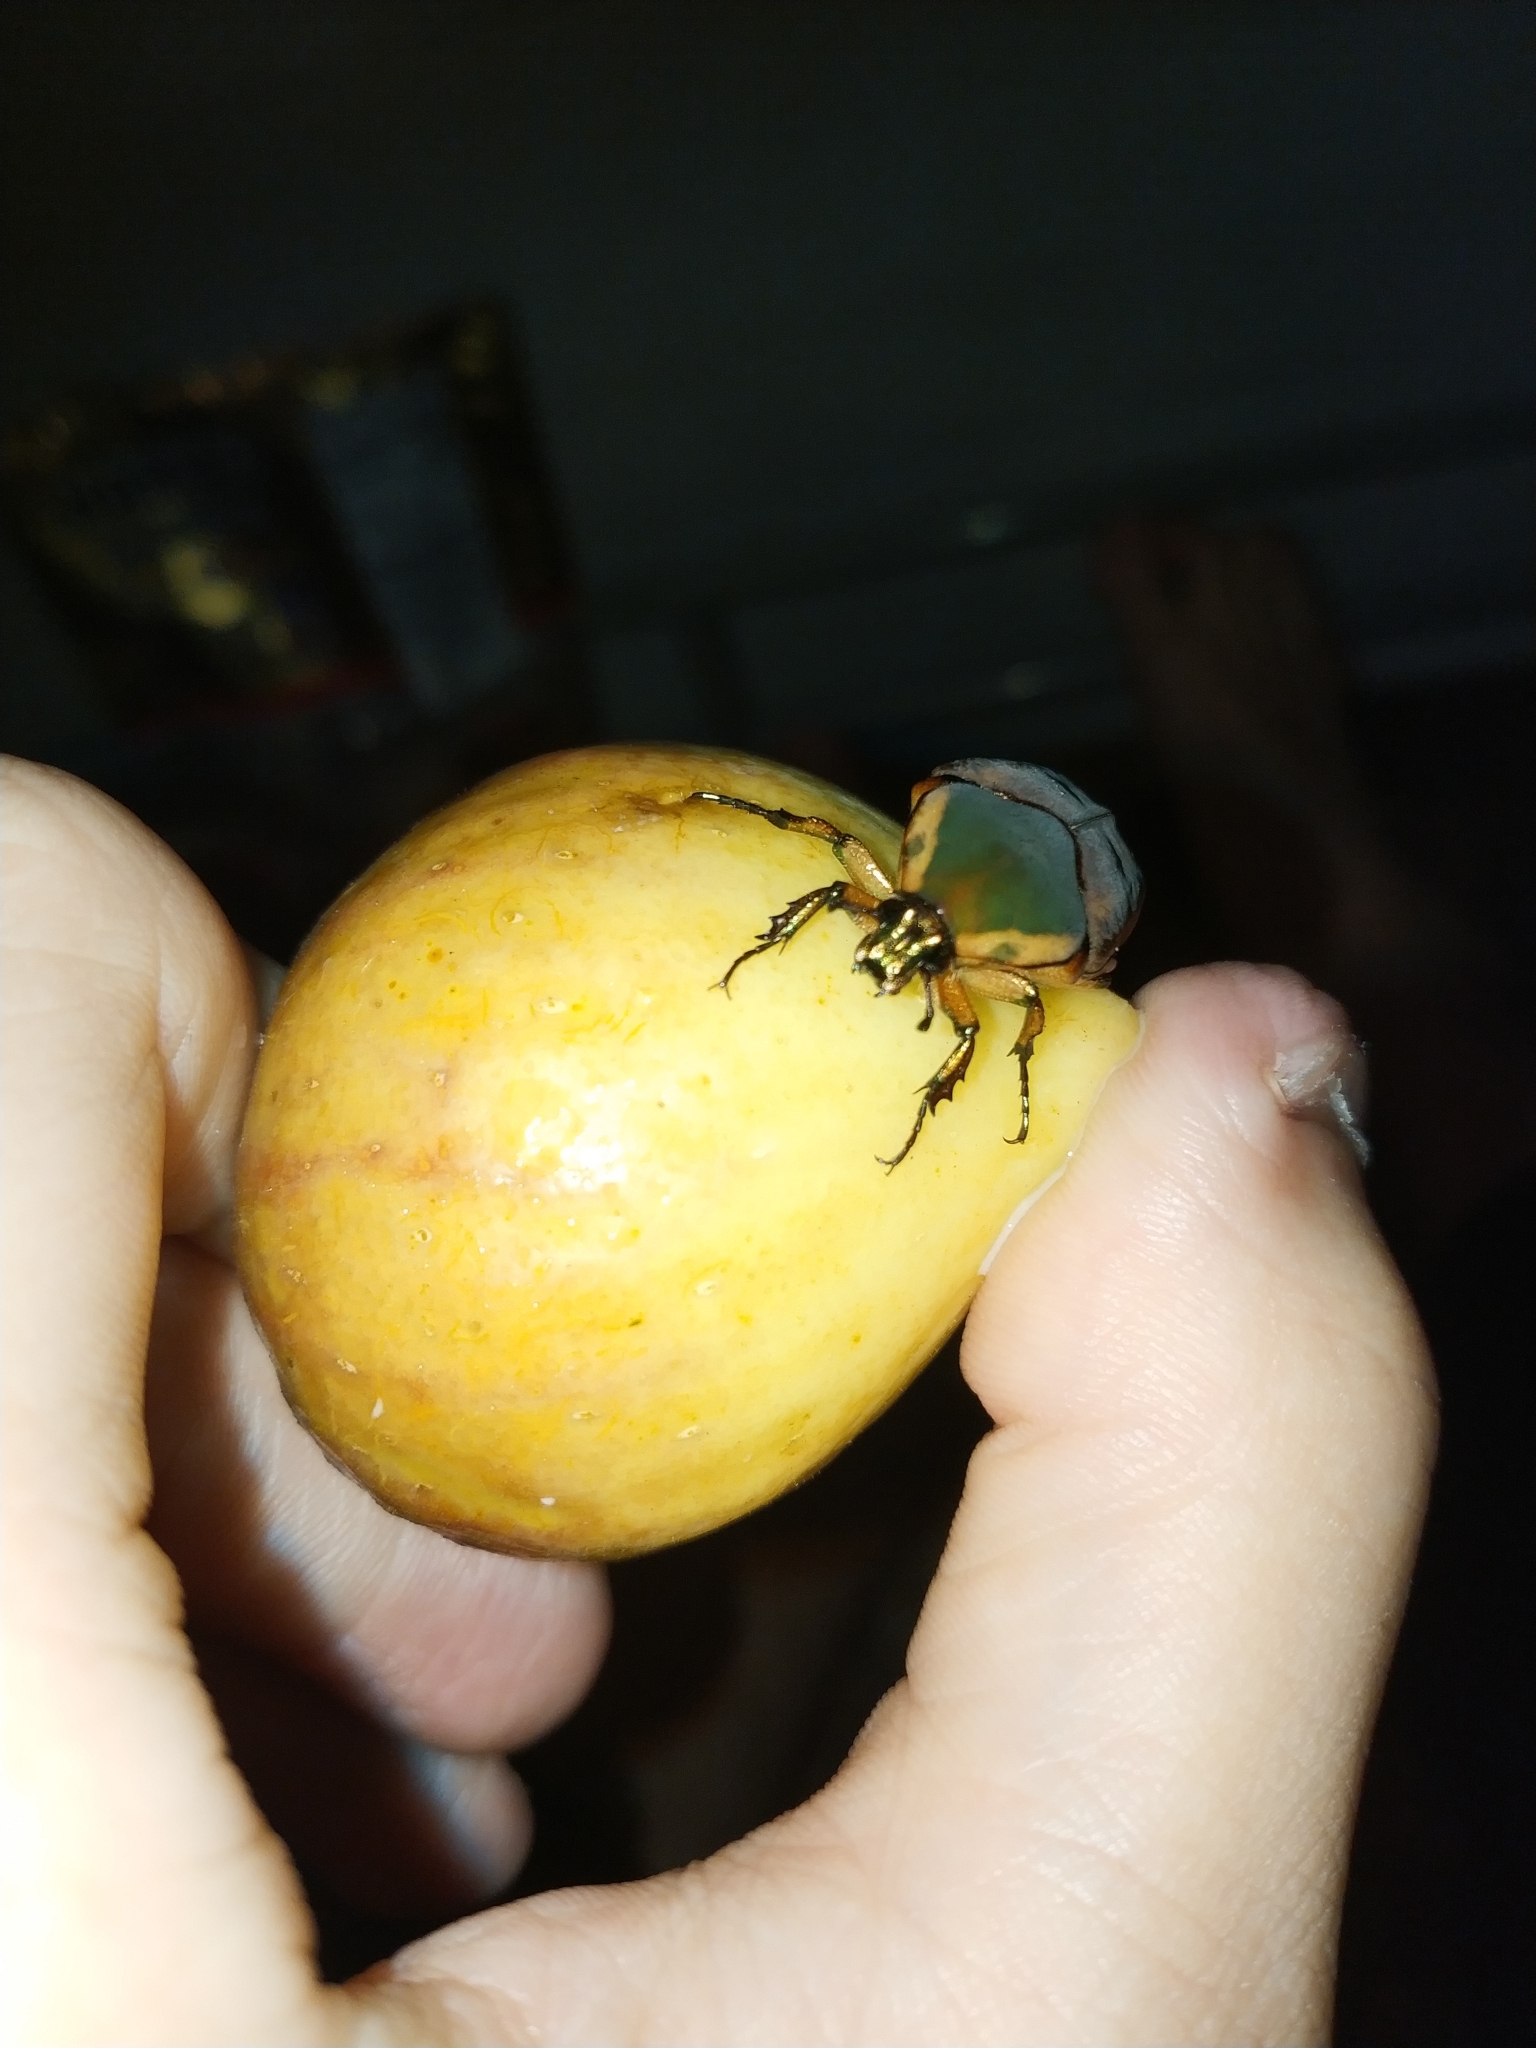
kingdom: Animalia
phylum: Arthropoda
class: Insecta
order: Coleoptera
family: Scarabaeidae
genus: Cotinis
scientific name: Cotinis nitida
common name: Common green june beetle
